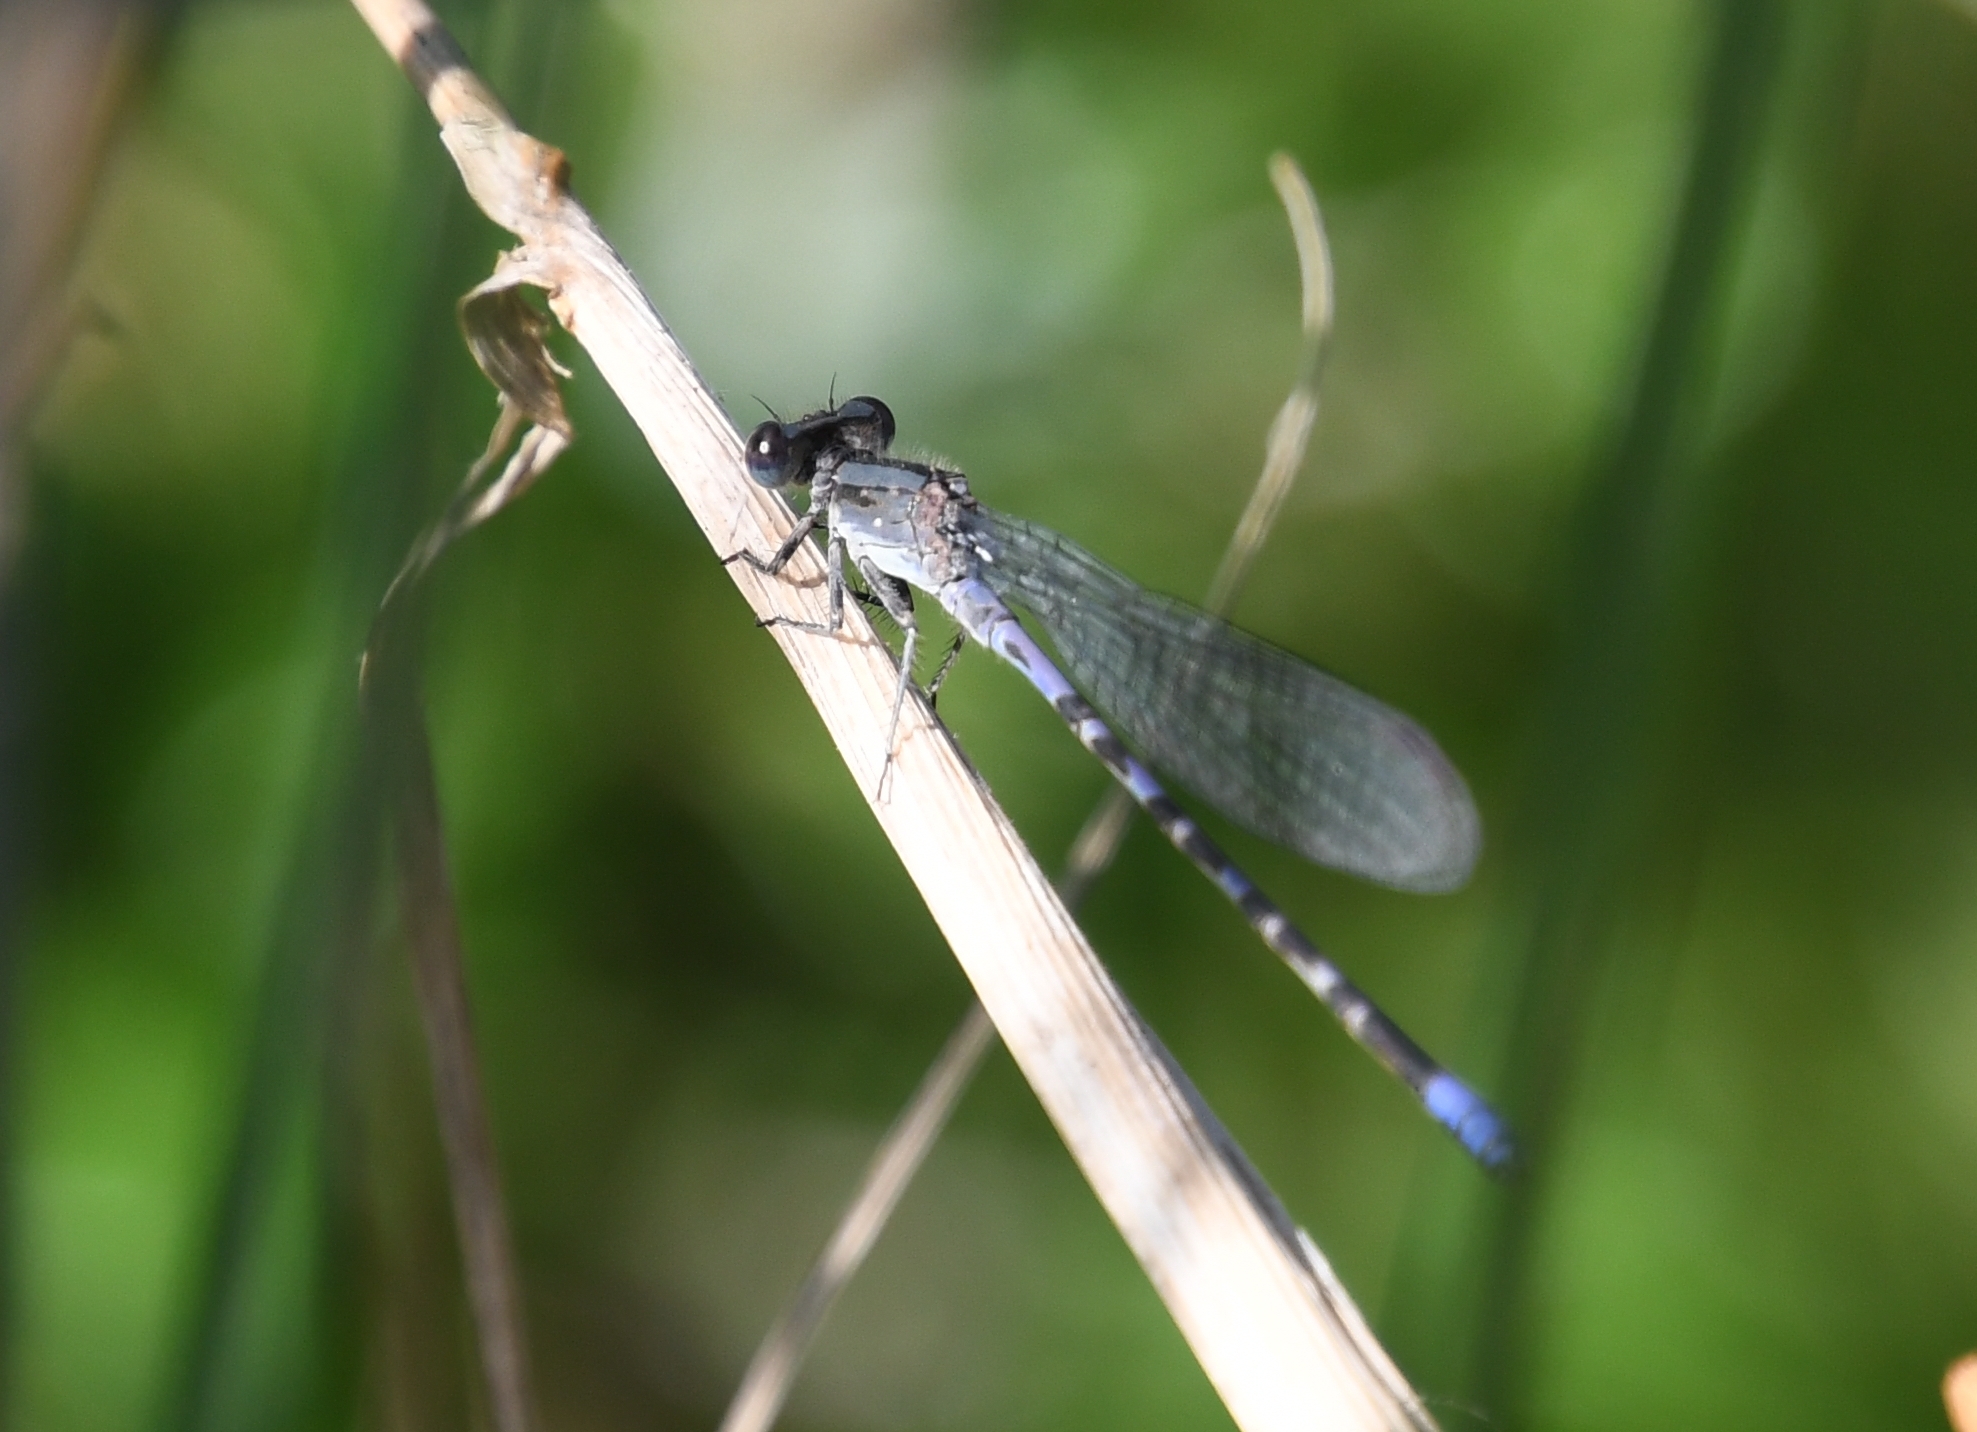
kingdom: Animalia
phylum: Arthropoda
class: Insecta
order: Odonata
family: Coenagrionidae
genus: Argia
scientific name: Argia immunda
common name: Kiowa dancer
